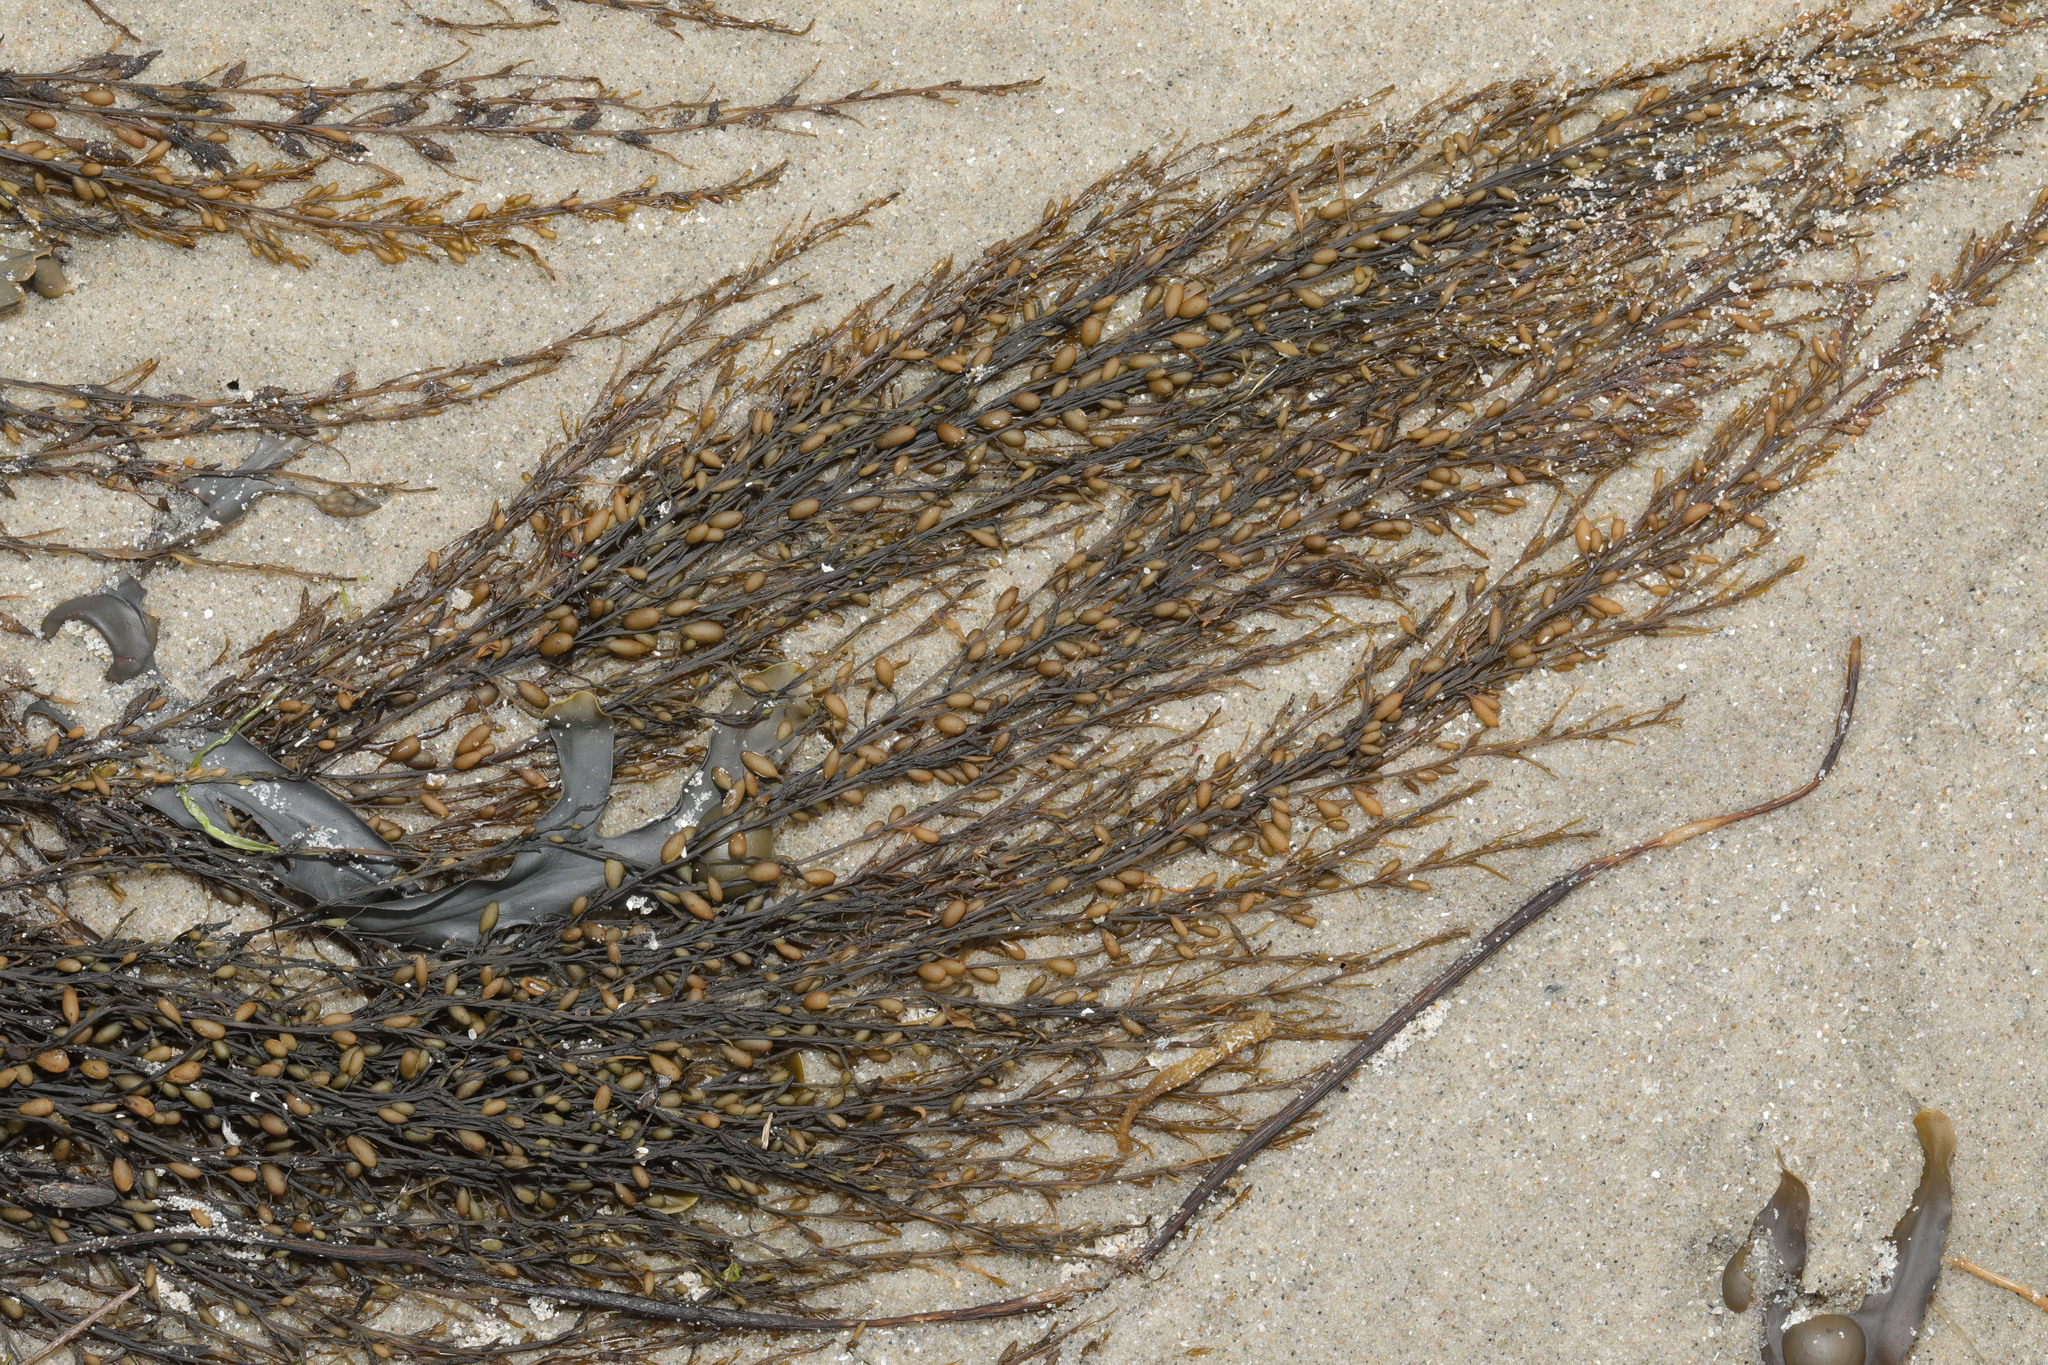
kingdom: Chromista
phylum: Ochrophyta
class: Phaeophyceae
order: Fucales
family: Sargassaceae
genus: Sargassum
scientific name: Sargassum muticum
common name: Japweed
